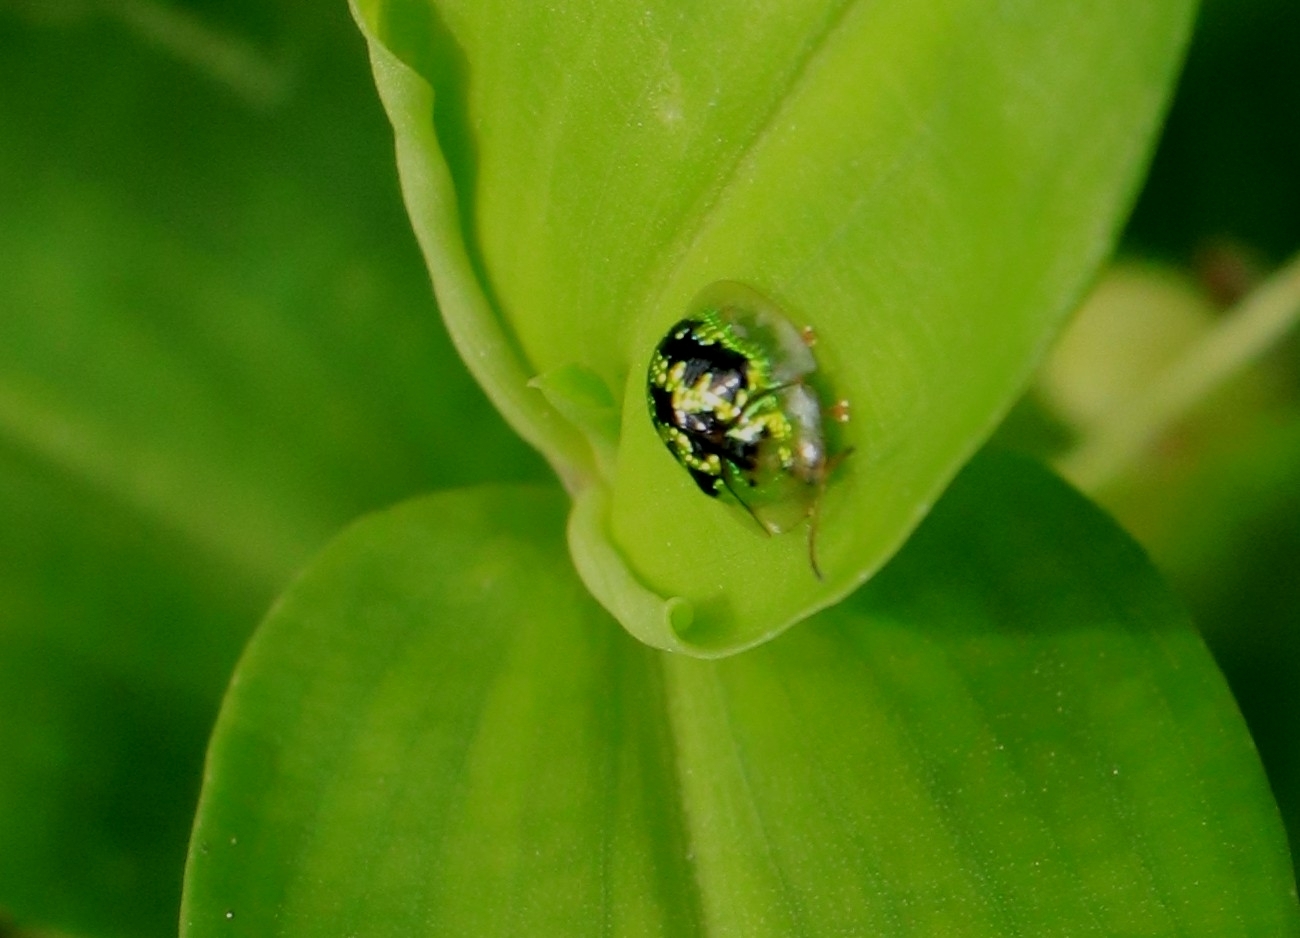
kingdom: Animalia
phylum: Arthropoda
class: Insecta
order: Coleoptera
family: Chrysomelidae
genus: Cassida
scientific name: Cassida circumdata
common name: Tortoise beetle
